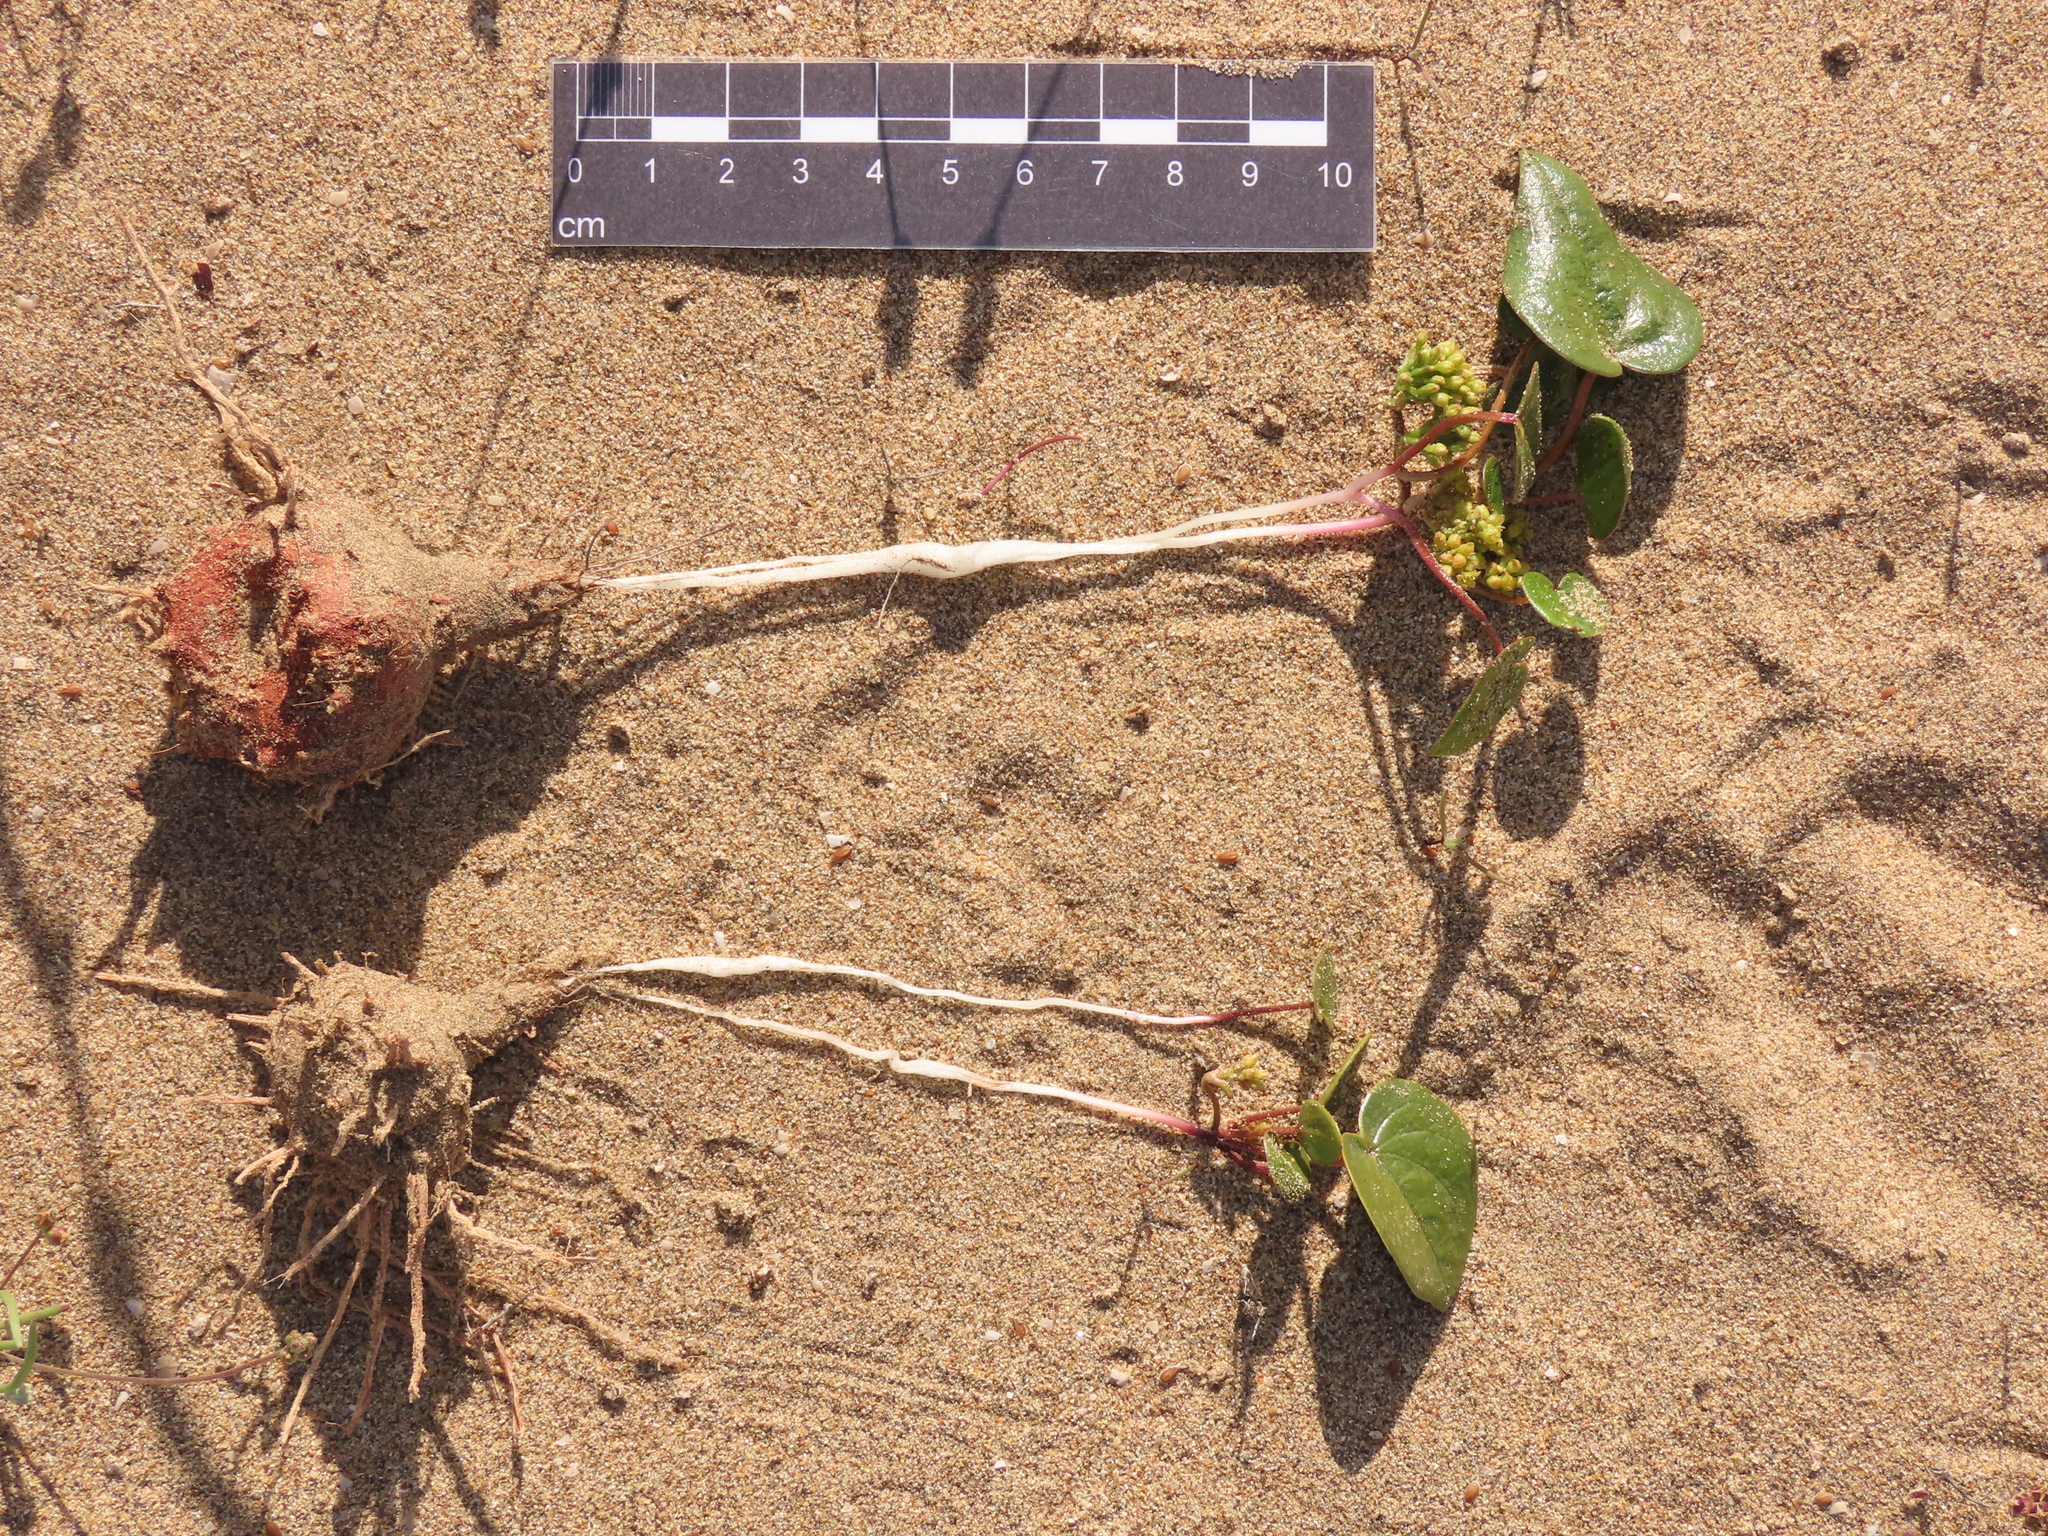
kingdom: Plantae
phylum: Tracheophyta
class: Liliopsida
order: Dioscoreales
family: Dioscoreaceae
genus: Dioscorea
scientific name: Dioscorea fastigiata
